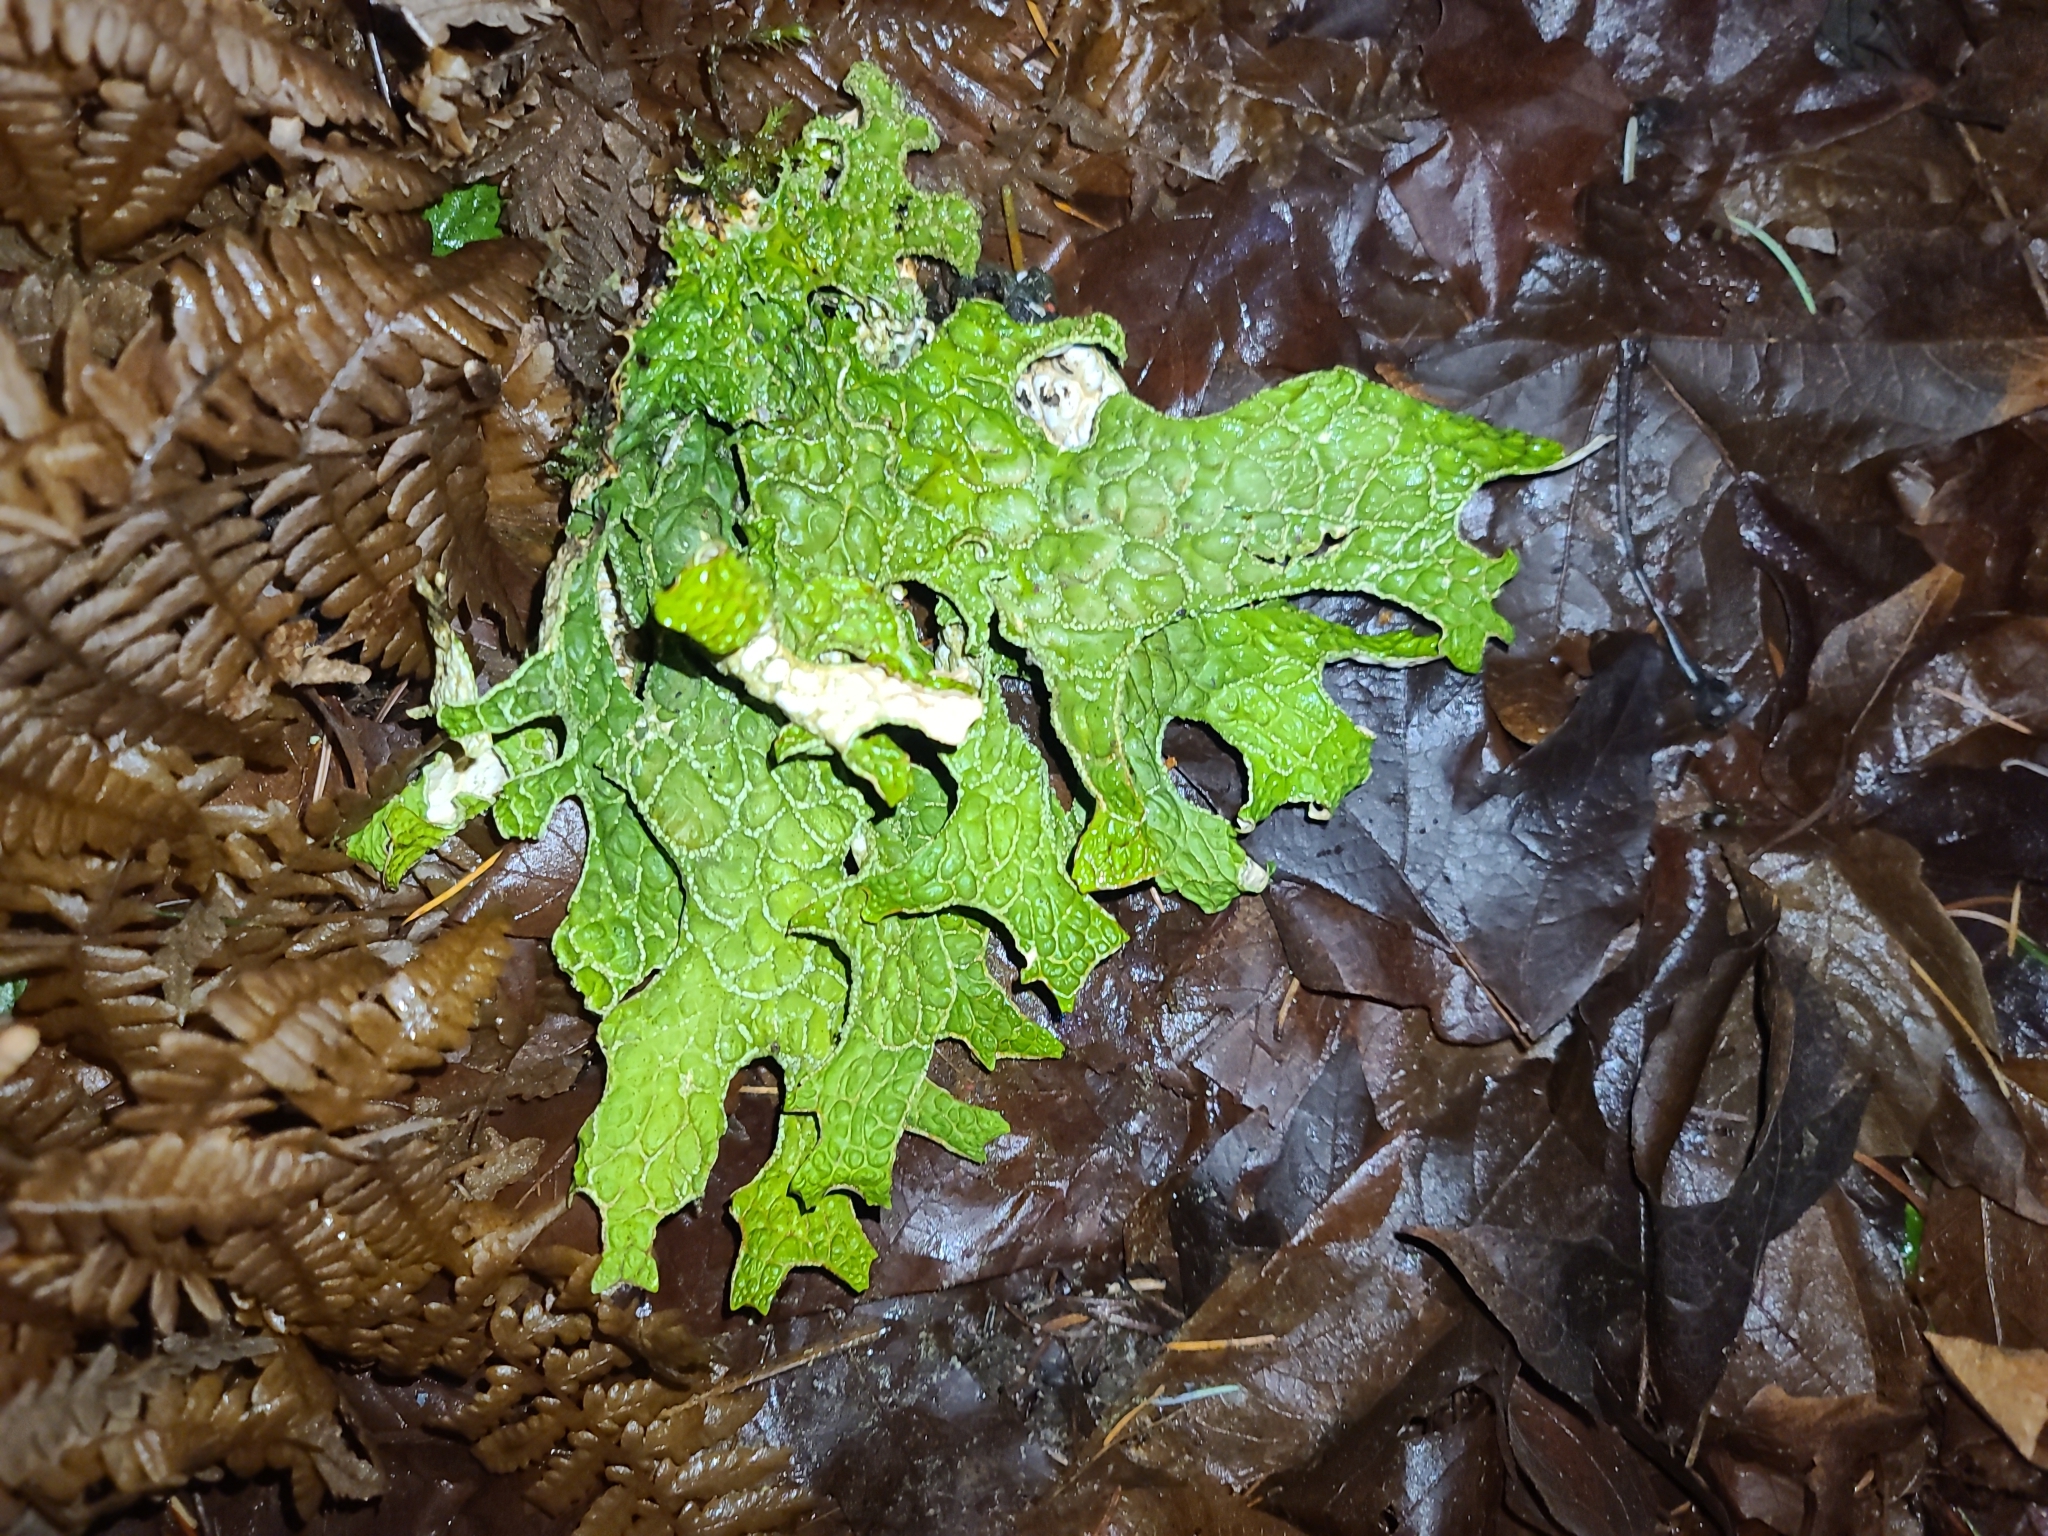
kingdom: Fungi
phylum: Ascomycota
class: Lecanoromycetes
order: Peltigerales
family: Lobariaceae
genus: Lobaria
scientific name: Lobaria linita
